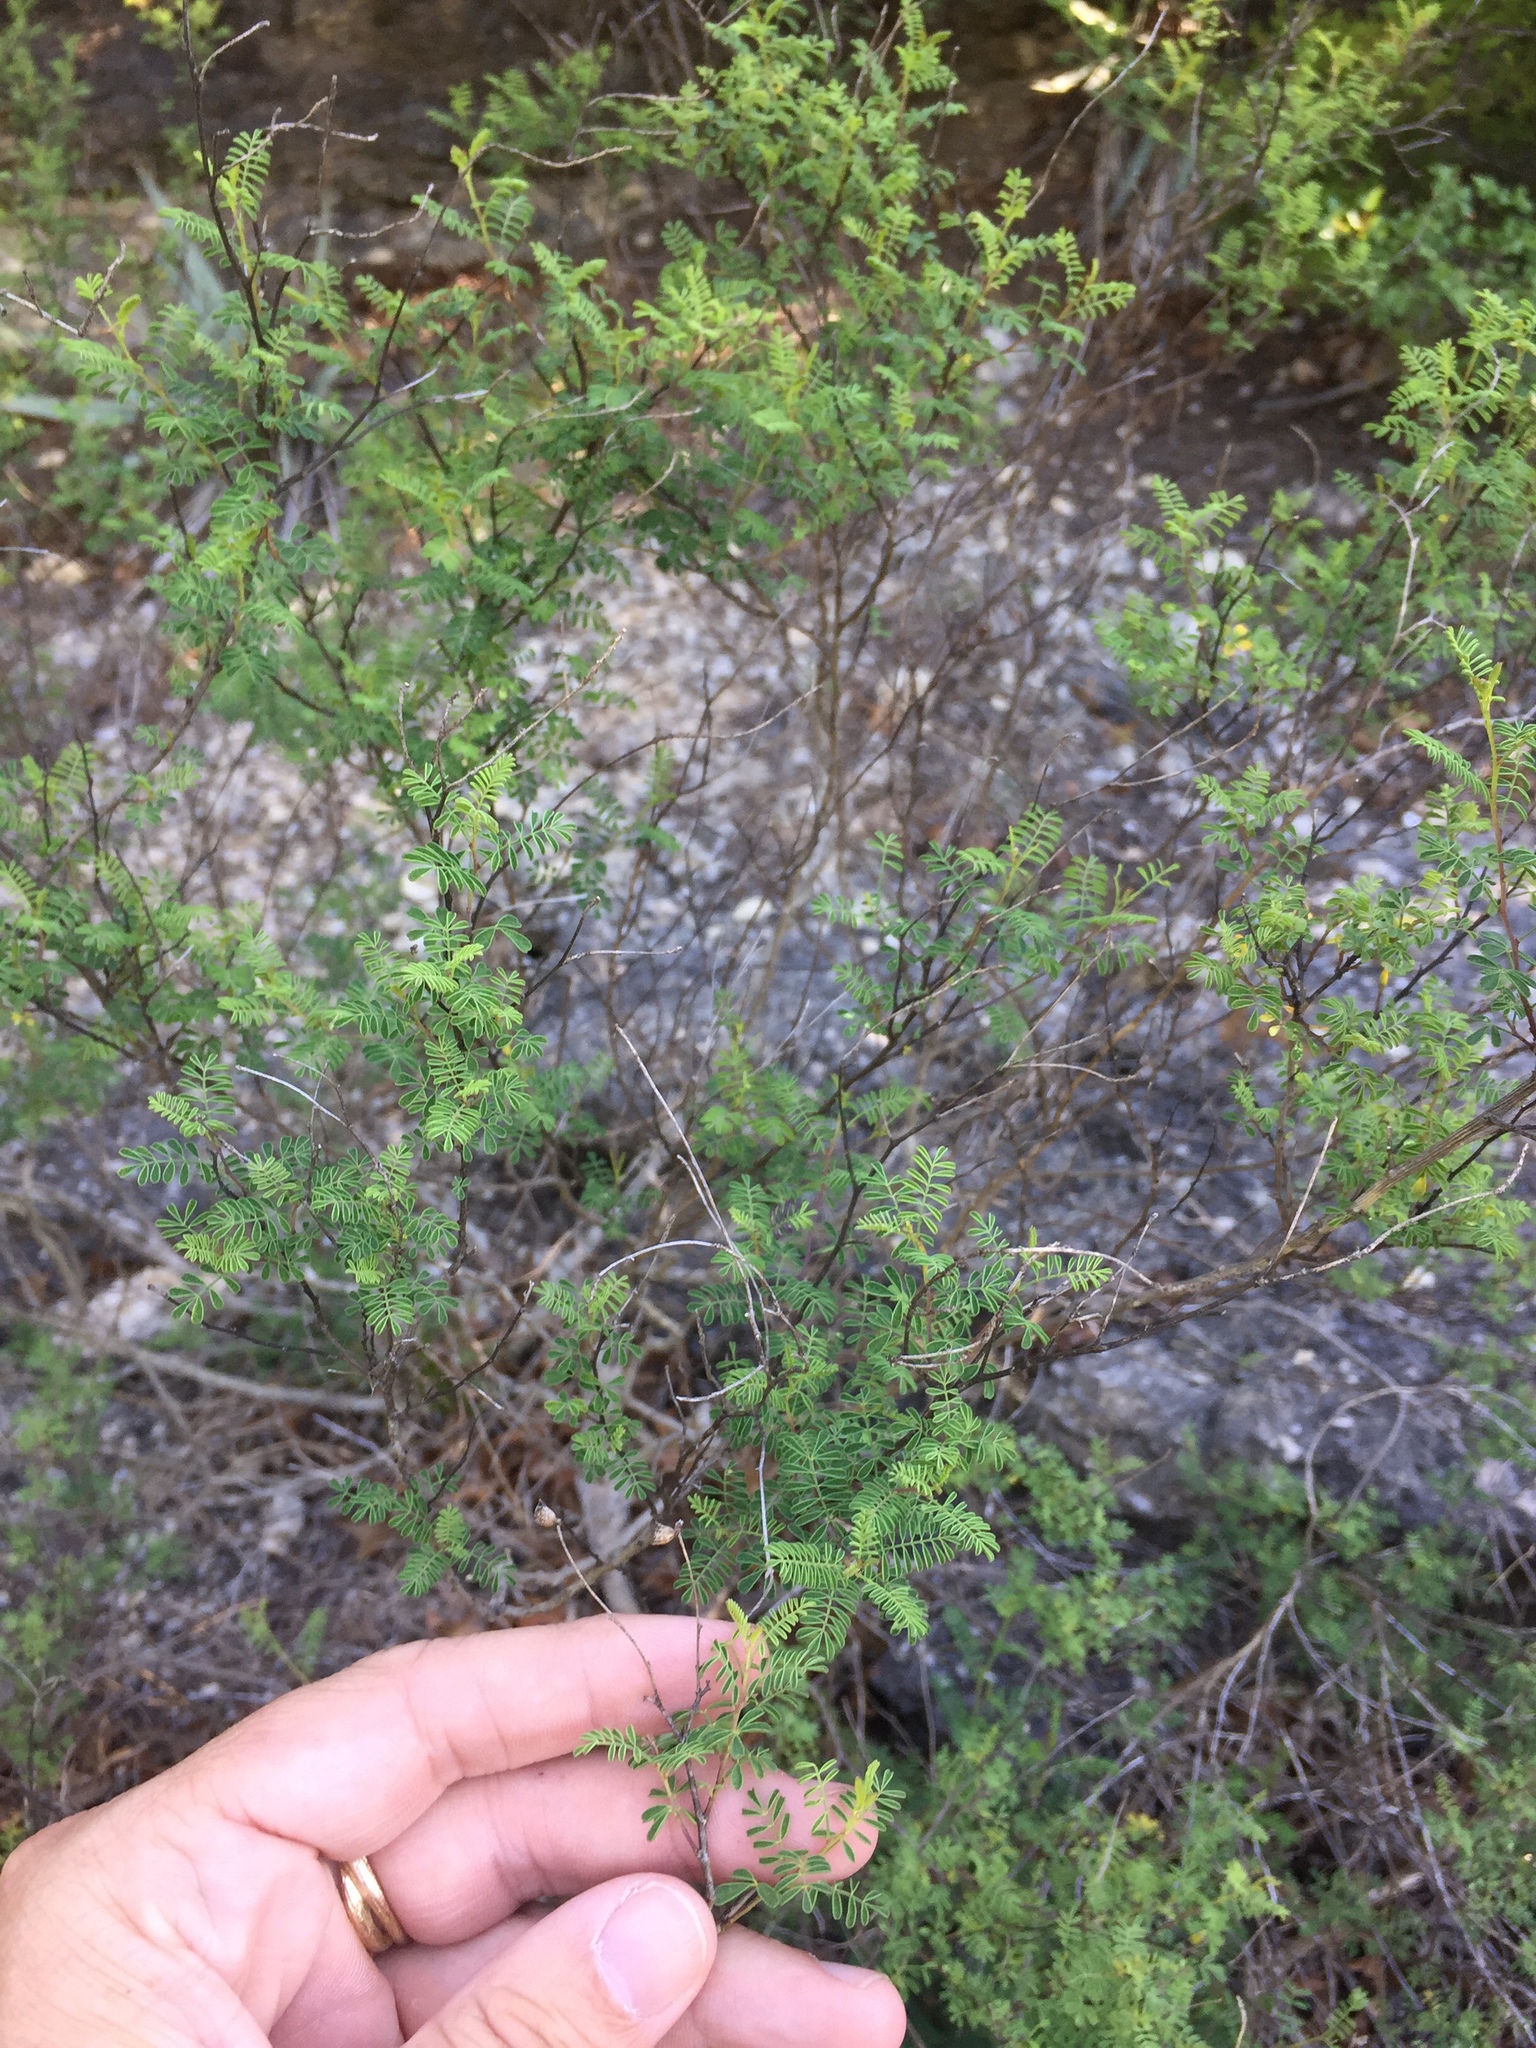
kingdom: Plantae
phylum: Tracheophyta
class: Magnoliopsida
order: Fabales
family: Fabaceae
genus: Dalea
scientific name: Dalea frutescens
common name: Black dalea
